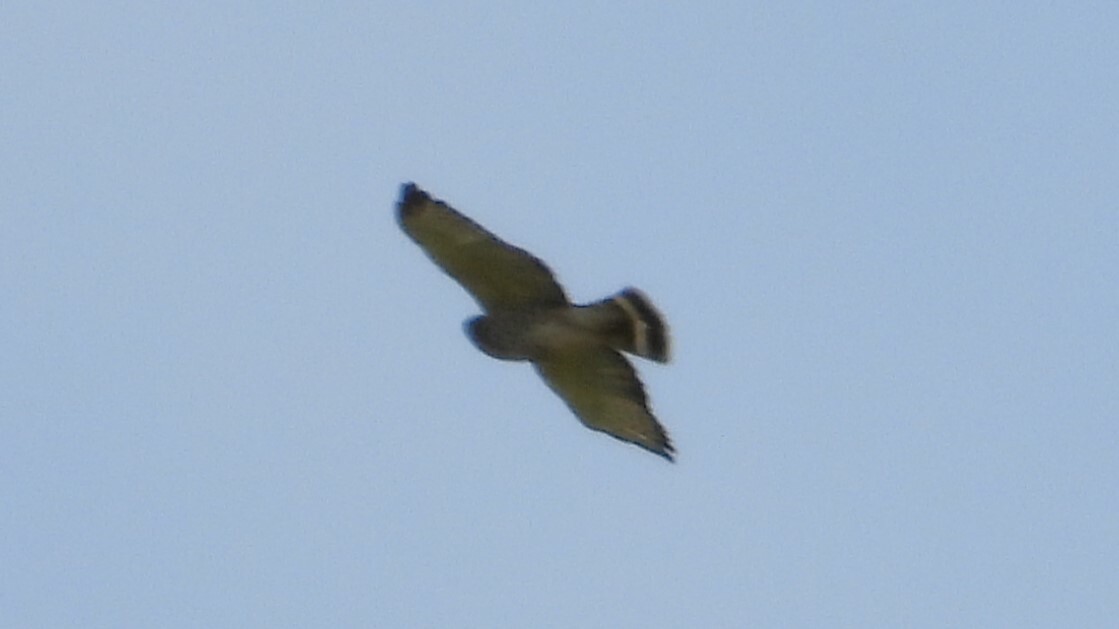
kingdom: Animalia
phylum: Chordata
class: Aves
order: Accipitriformes
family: Accipitridae
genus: Buteo
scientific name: Buteo platypterus
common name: Broad-winged hawk
